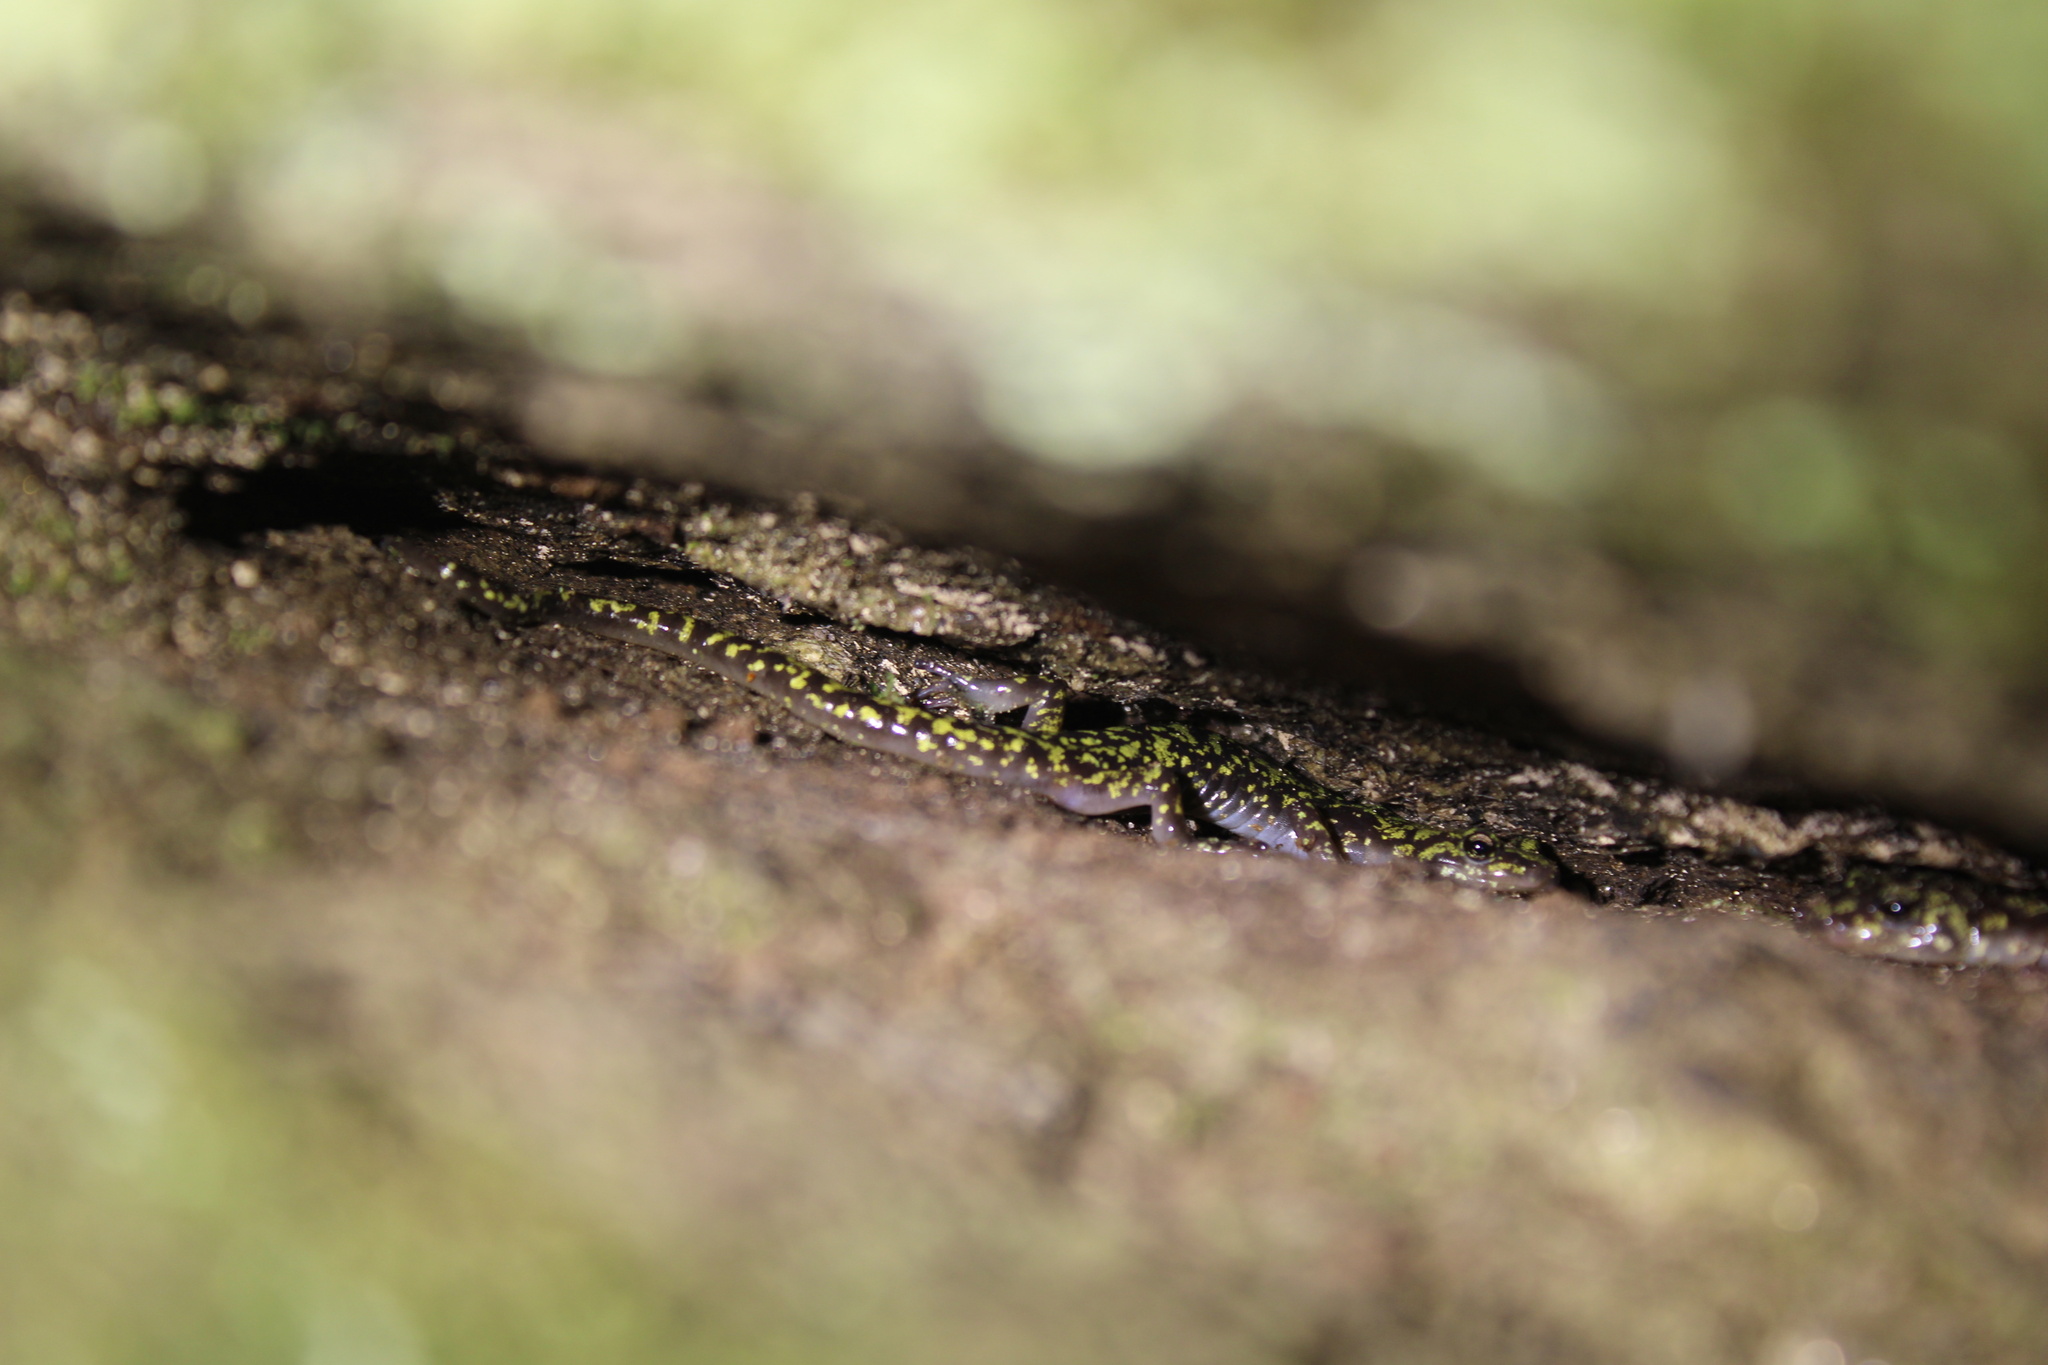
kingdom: Animalia
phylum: Chordata
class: Amphibia
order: Caudata
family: Plethodontidae
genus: Aneides
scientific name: Aneides aeneus
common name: Green salamander
